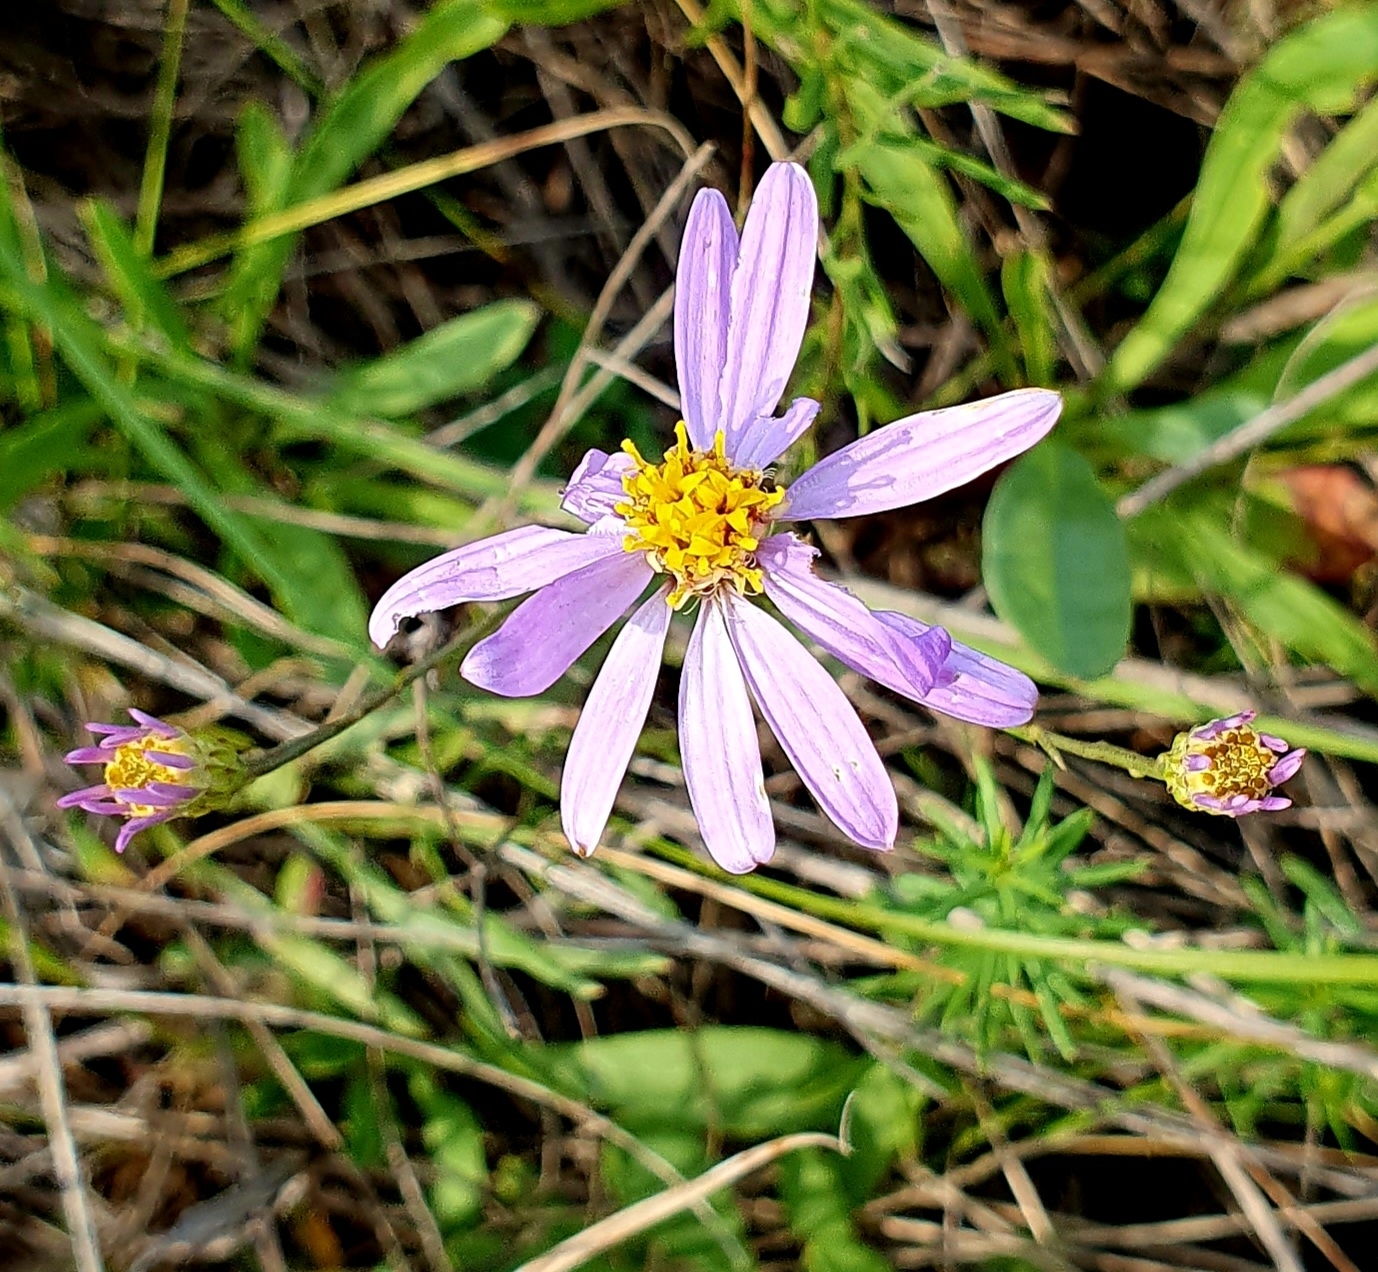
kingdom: Plantae
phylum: Tracheophyta
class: Magnoliopsida
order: Asterales
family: Asteraceae
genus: Galatella
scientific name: Galatella angustissima
